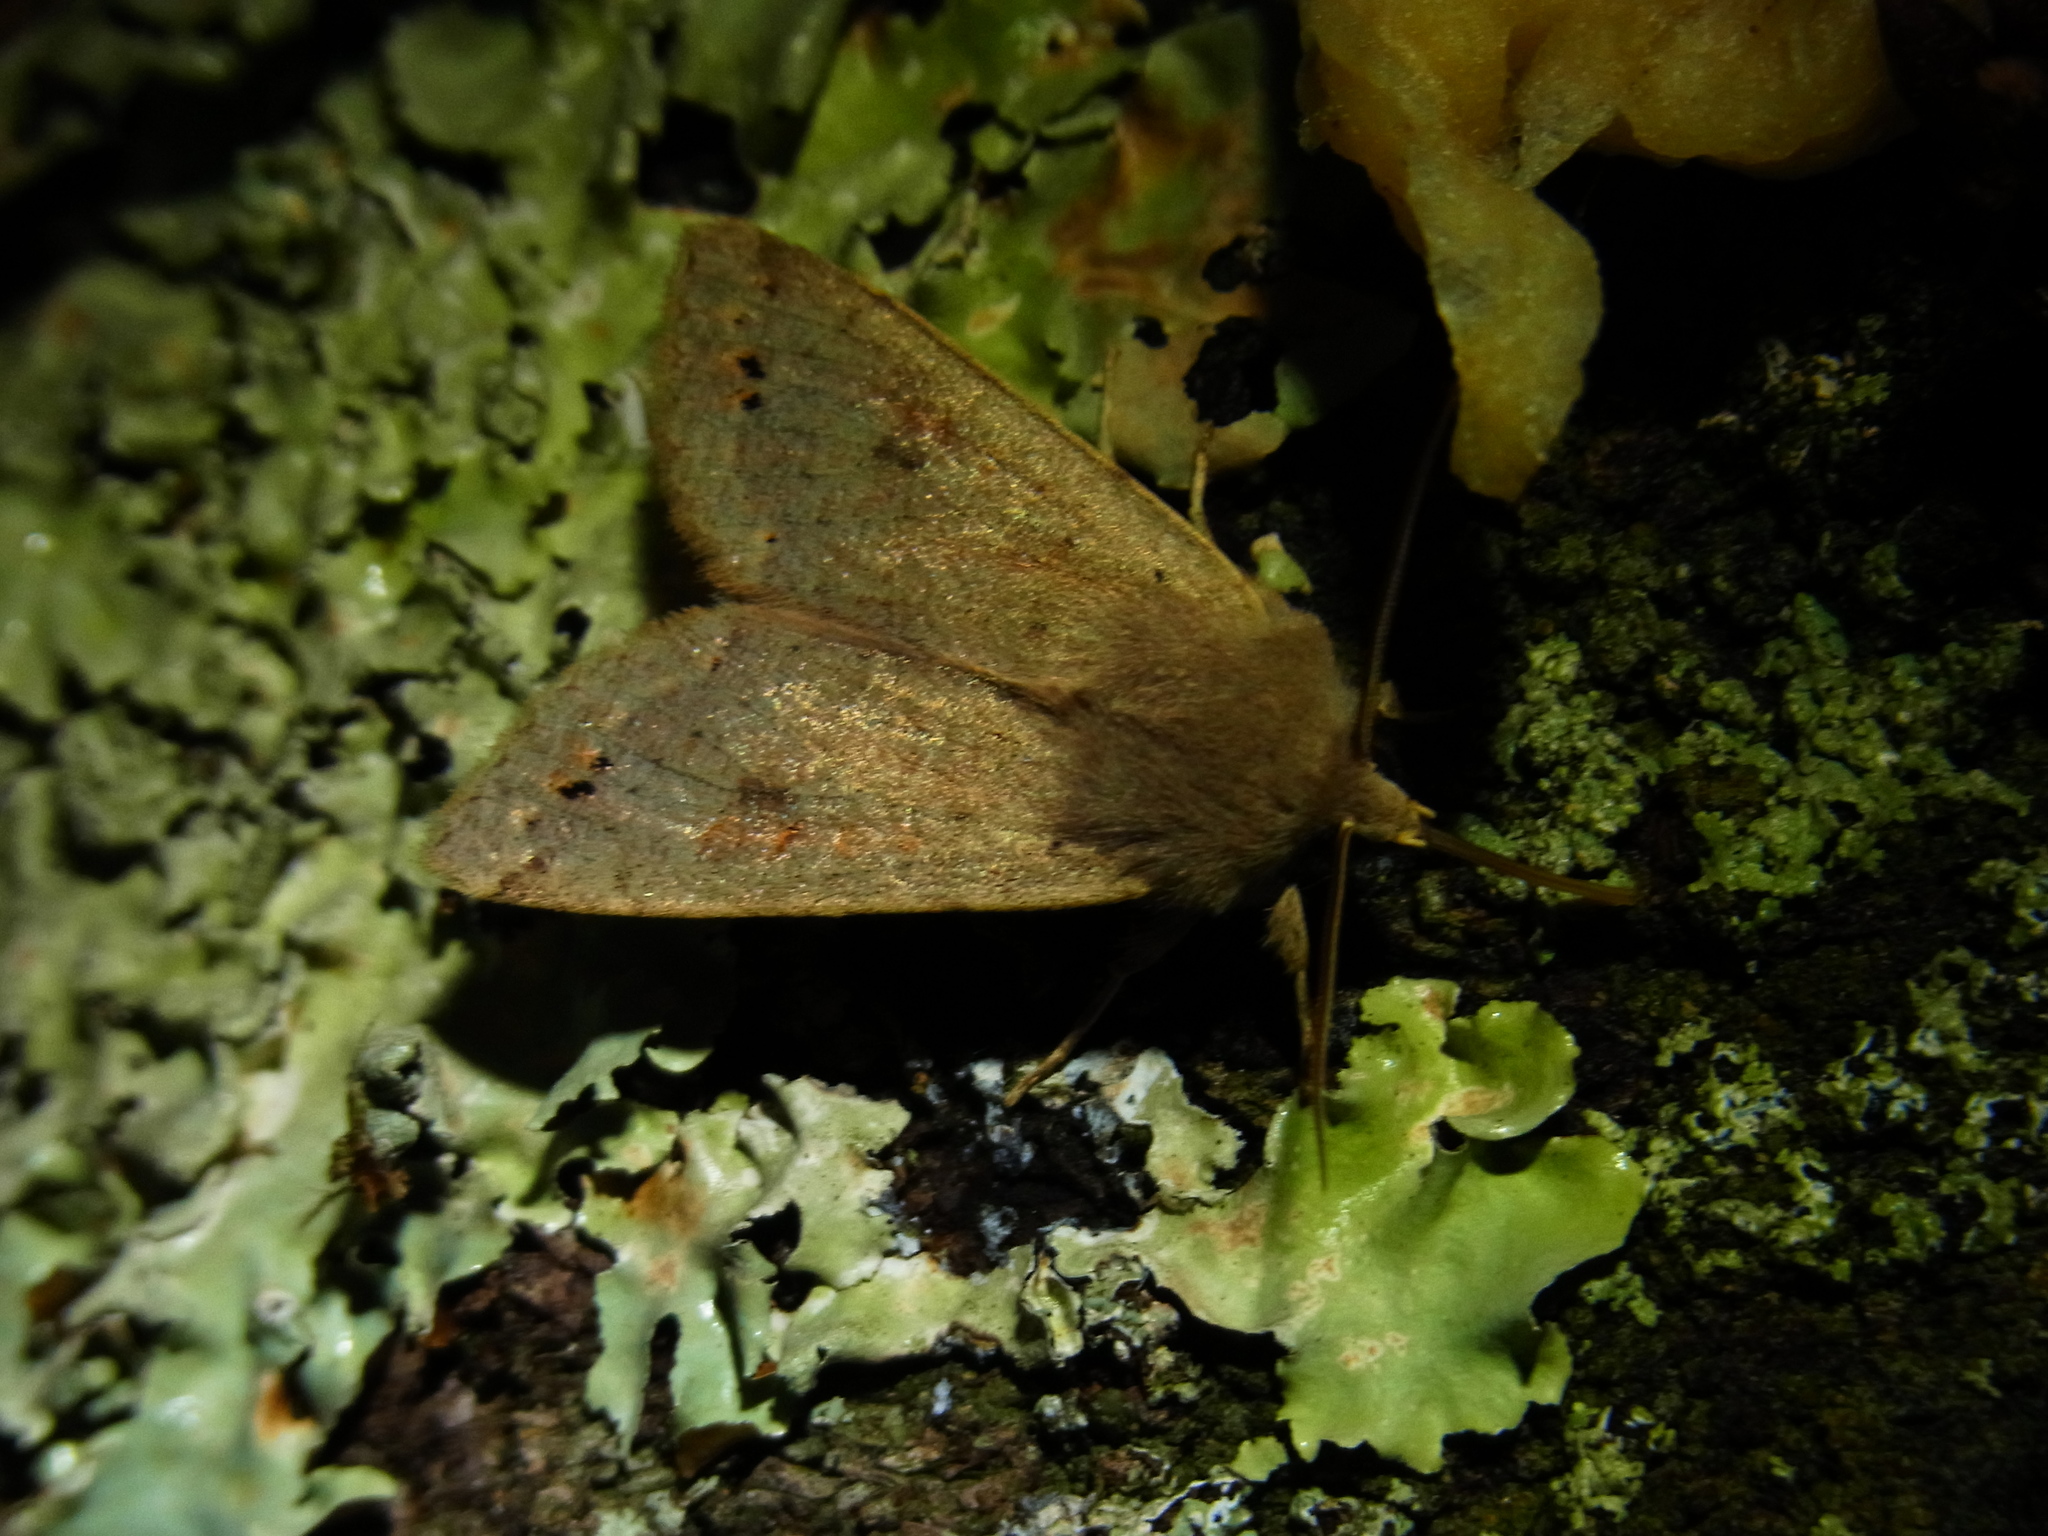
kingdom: Animalia
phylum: Arthropoda
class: Insecta
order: Lepidoptera
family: Noctuidae
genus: Anorthoa
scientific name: Anorthoa munda
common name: Twin-spotted quaker
